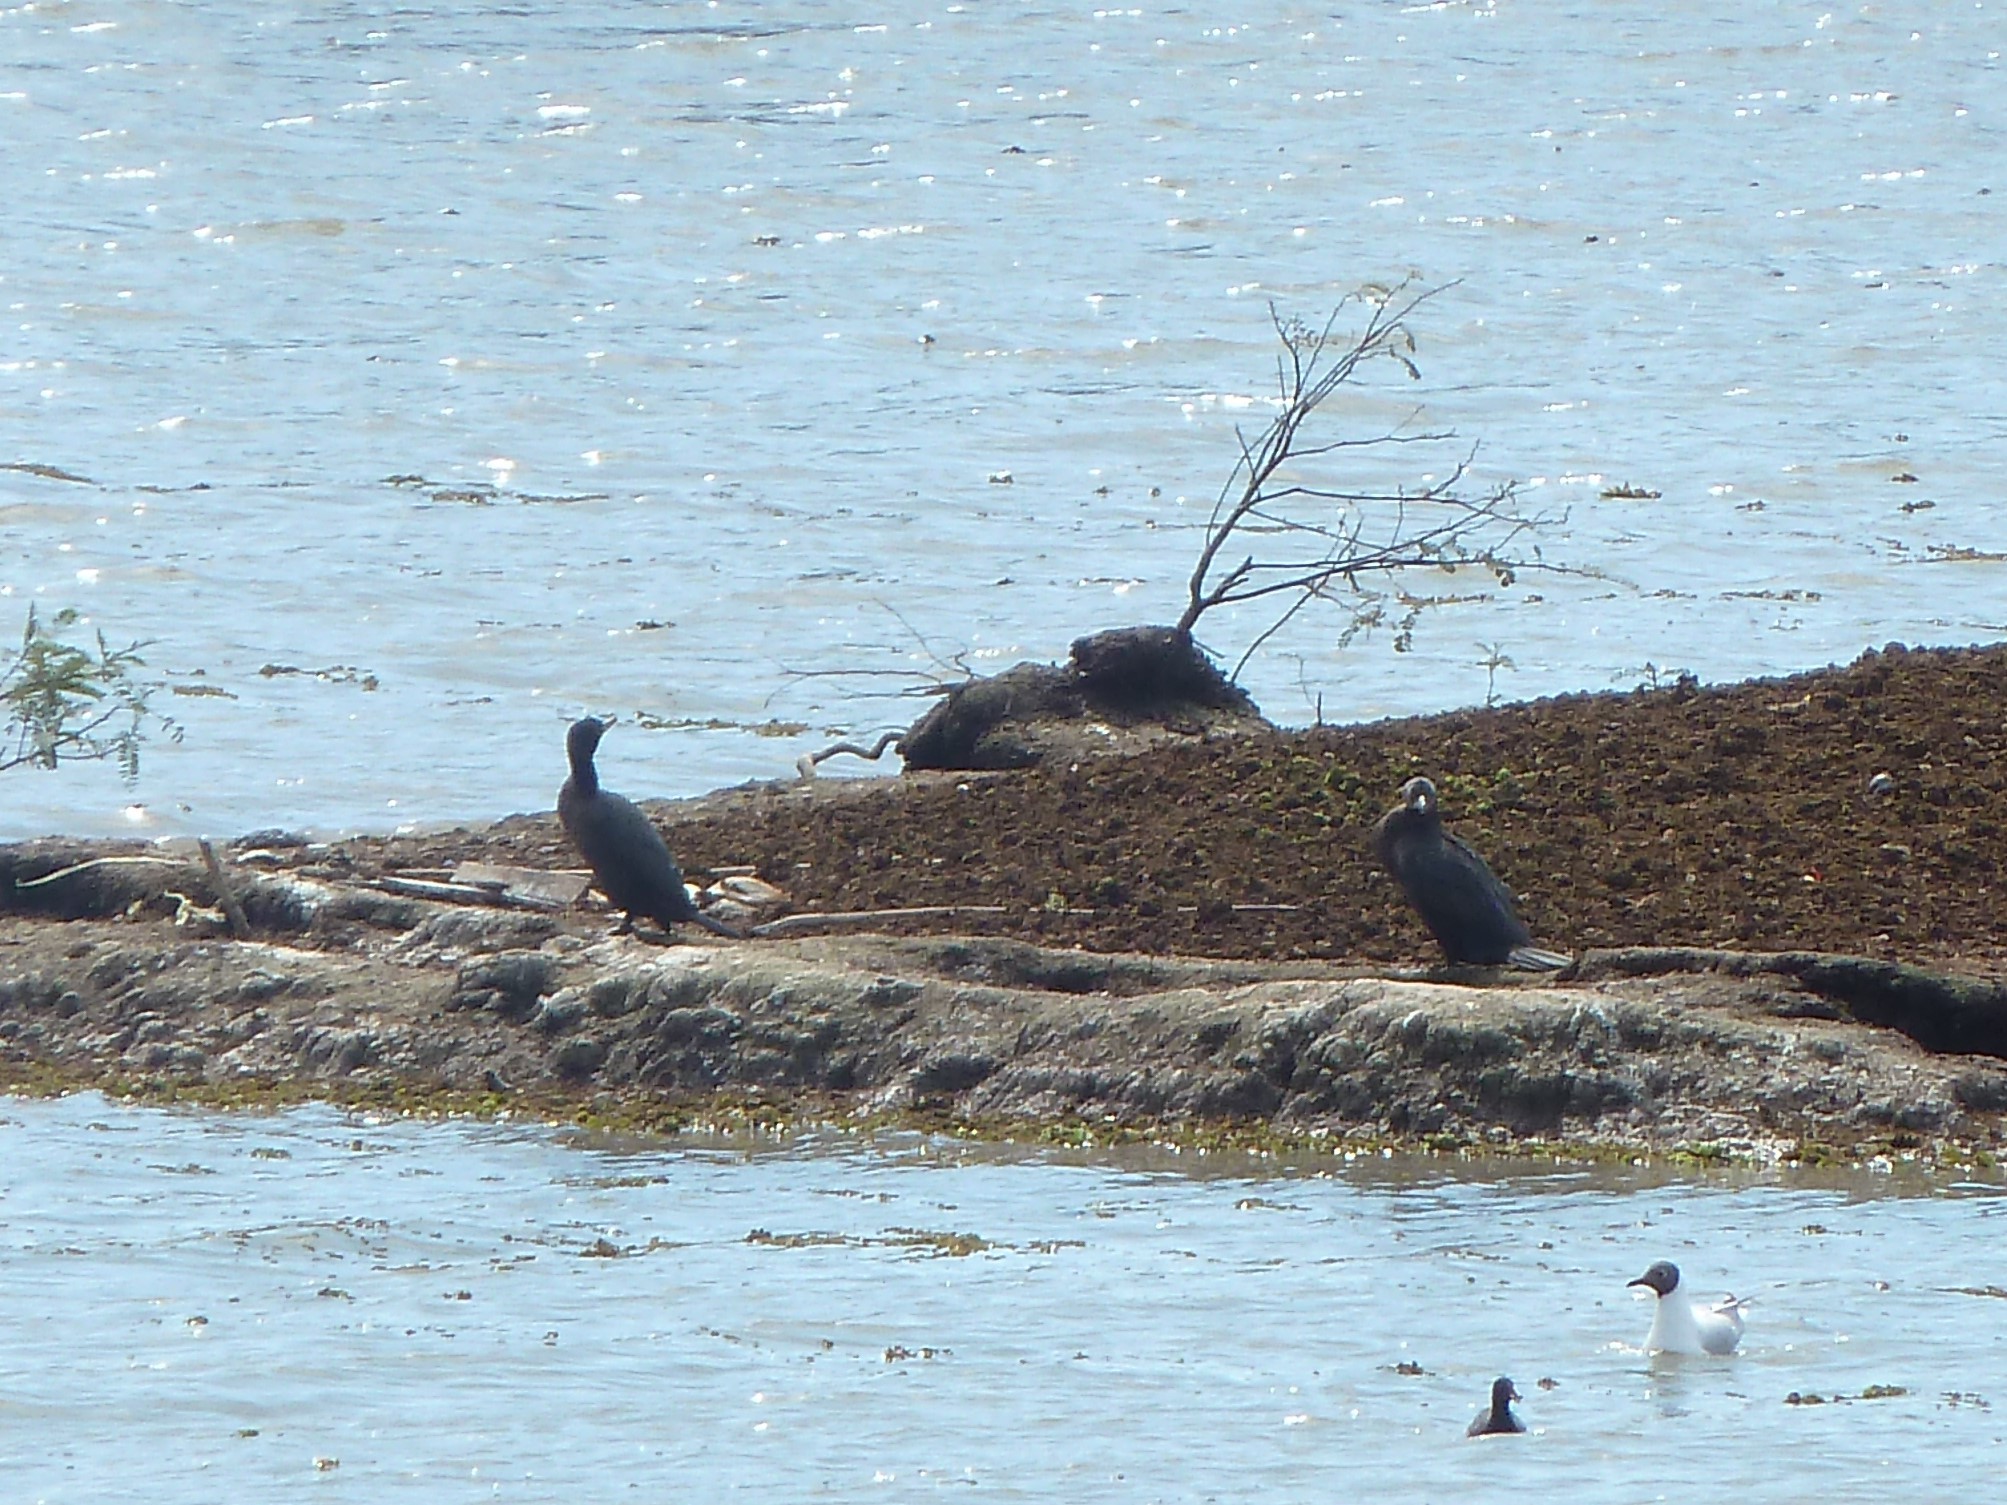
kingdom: Animalia
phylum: Chordata
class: Aves
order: Suliformes
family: Phalacrocoracidae
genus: Phalacrocorax
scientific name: Phalacrocorax brasilianus
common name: Neotropic cormorant
